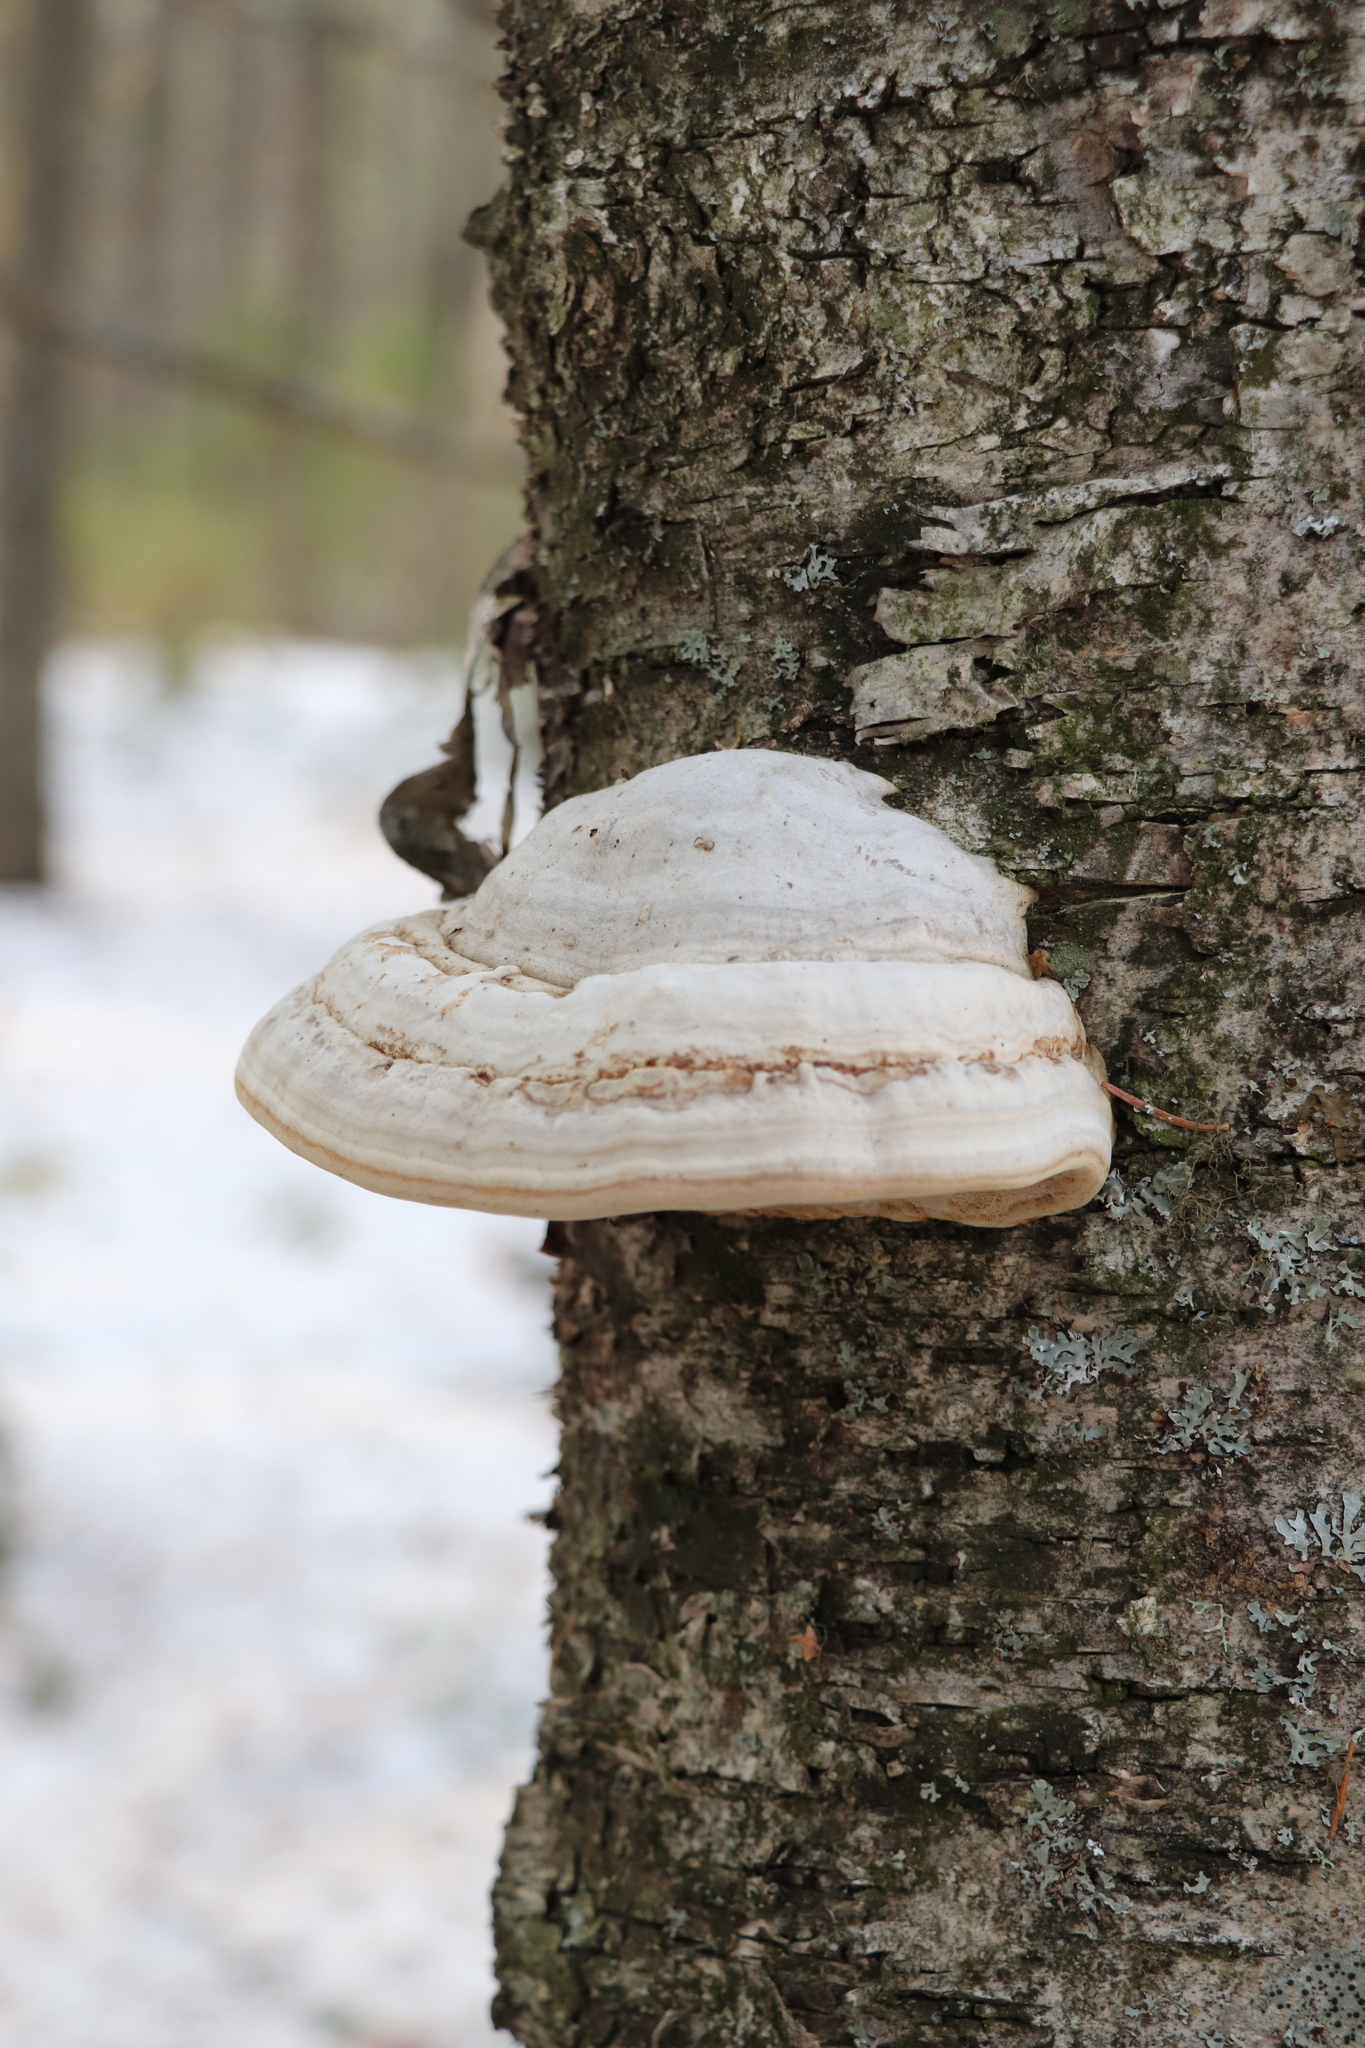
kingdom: Fungi
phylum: Basidiomycota
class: Agaricomycetes
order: Polyporales
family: Polyporaceae
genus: Fomes
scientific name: Fomes fomentarius
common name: Hoof fungus
